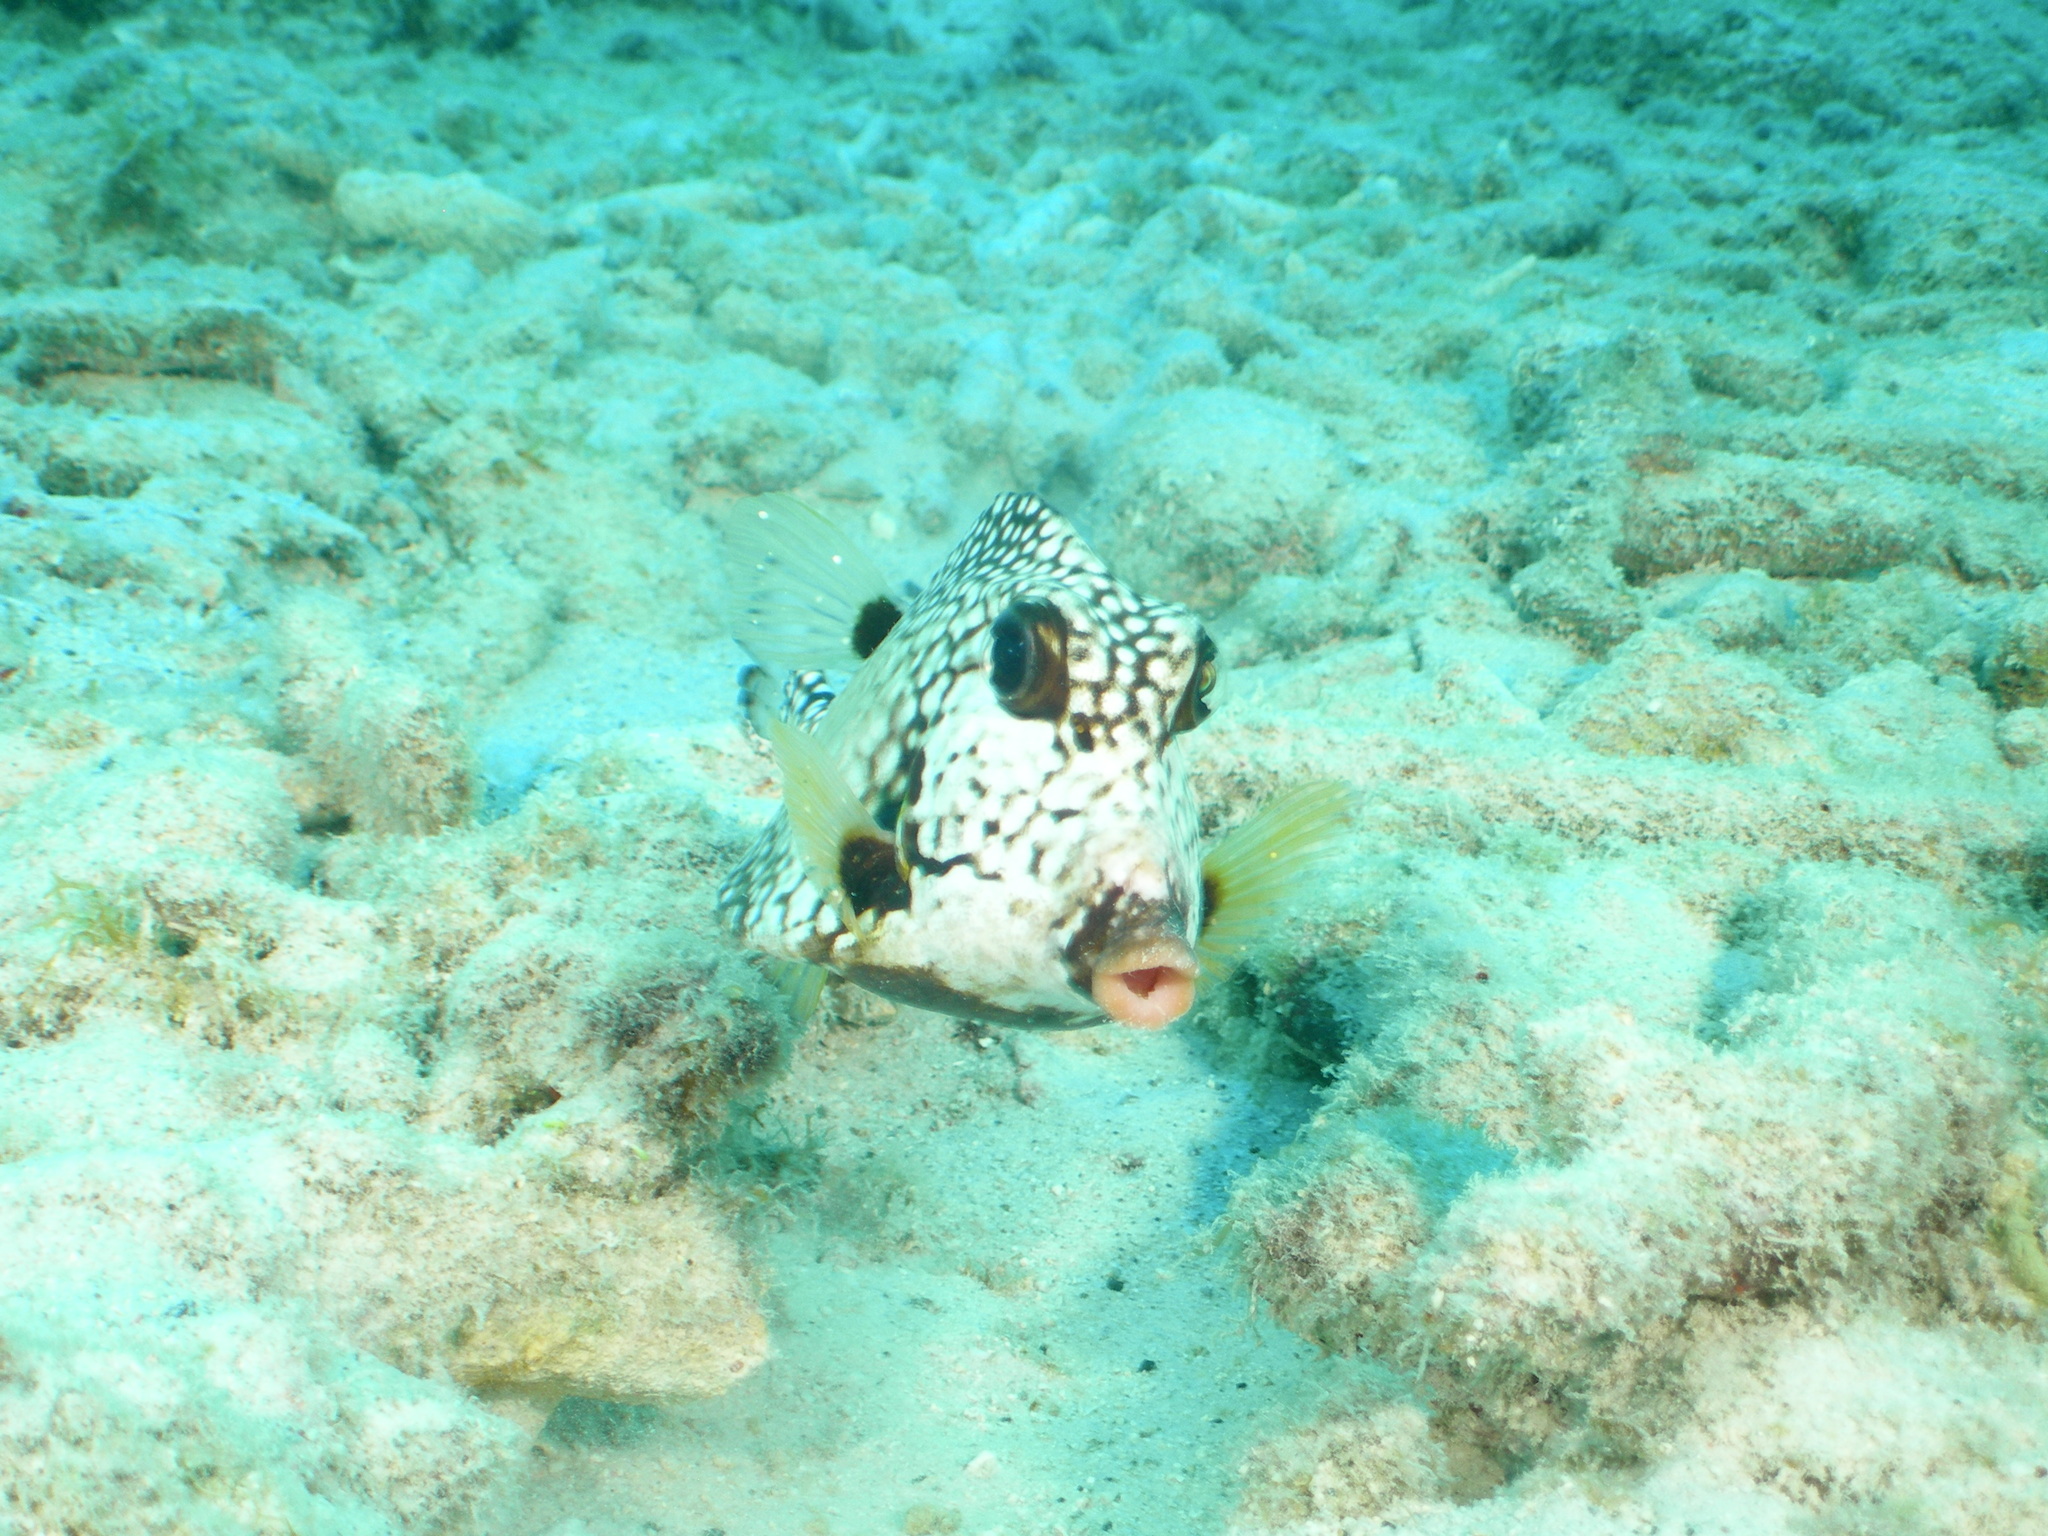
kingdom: Animalia
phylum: Chordata
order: Tetraodontiformes
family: Ostraciidae
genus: Lactophrys
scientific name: Lactophrys triqueter
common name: Smooth trunkfish
